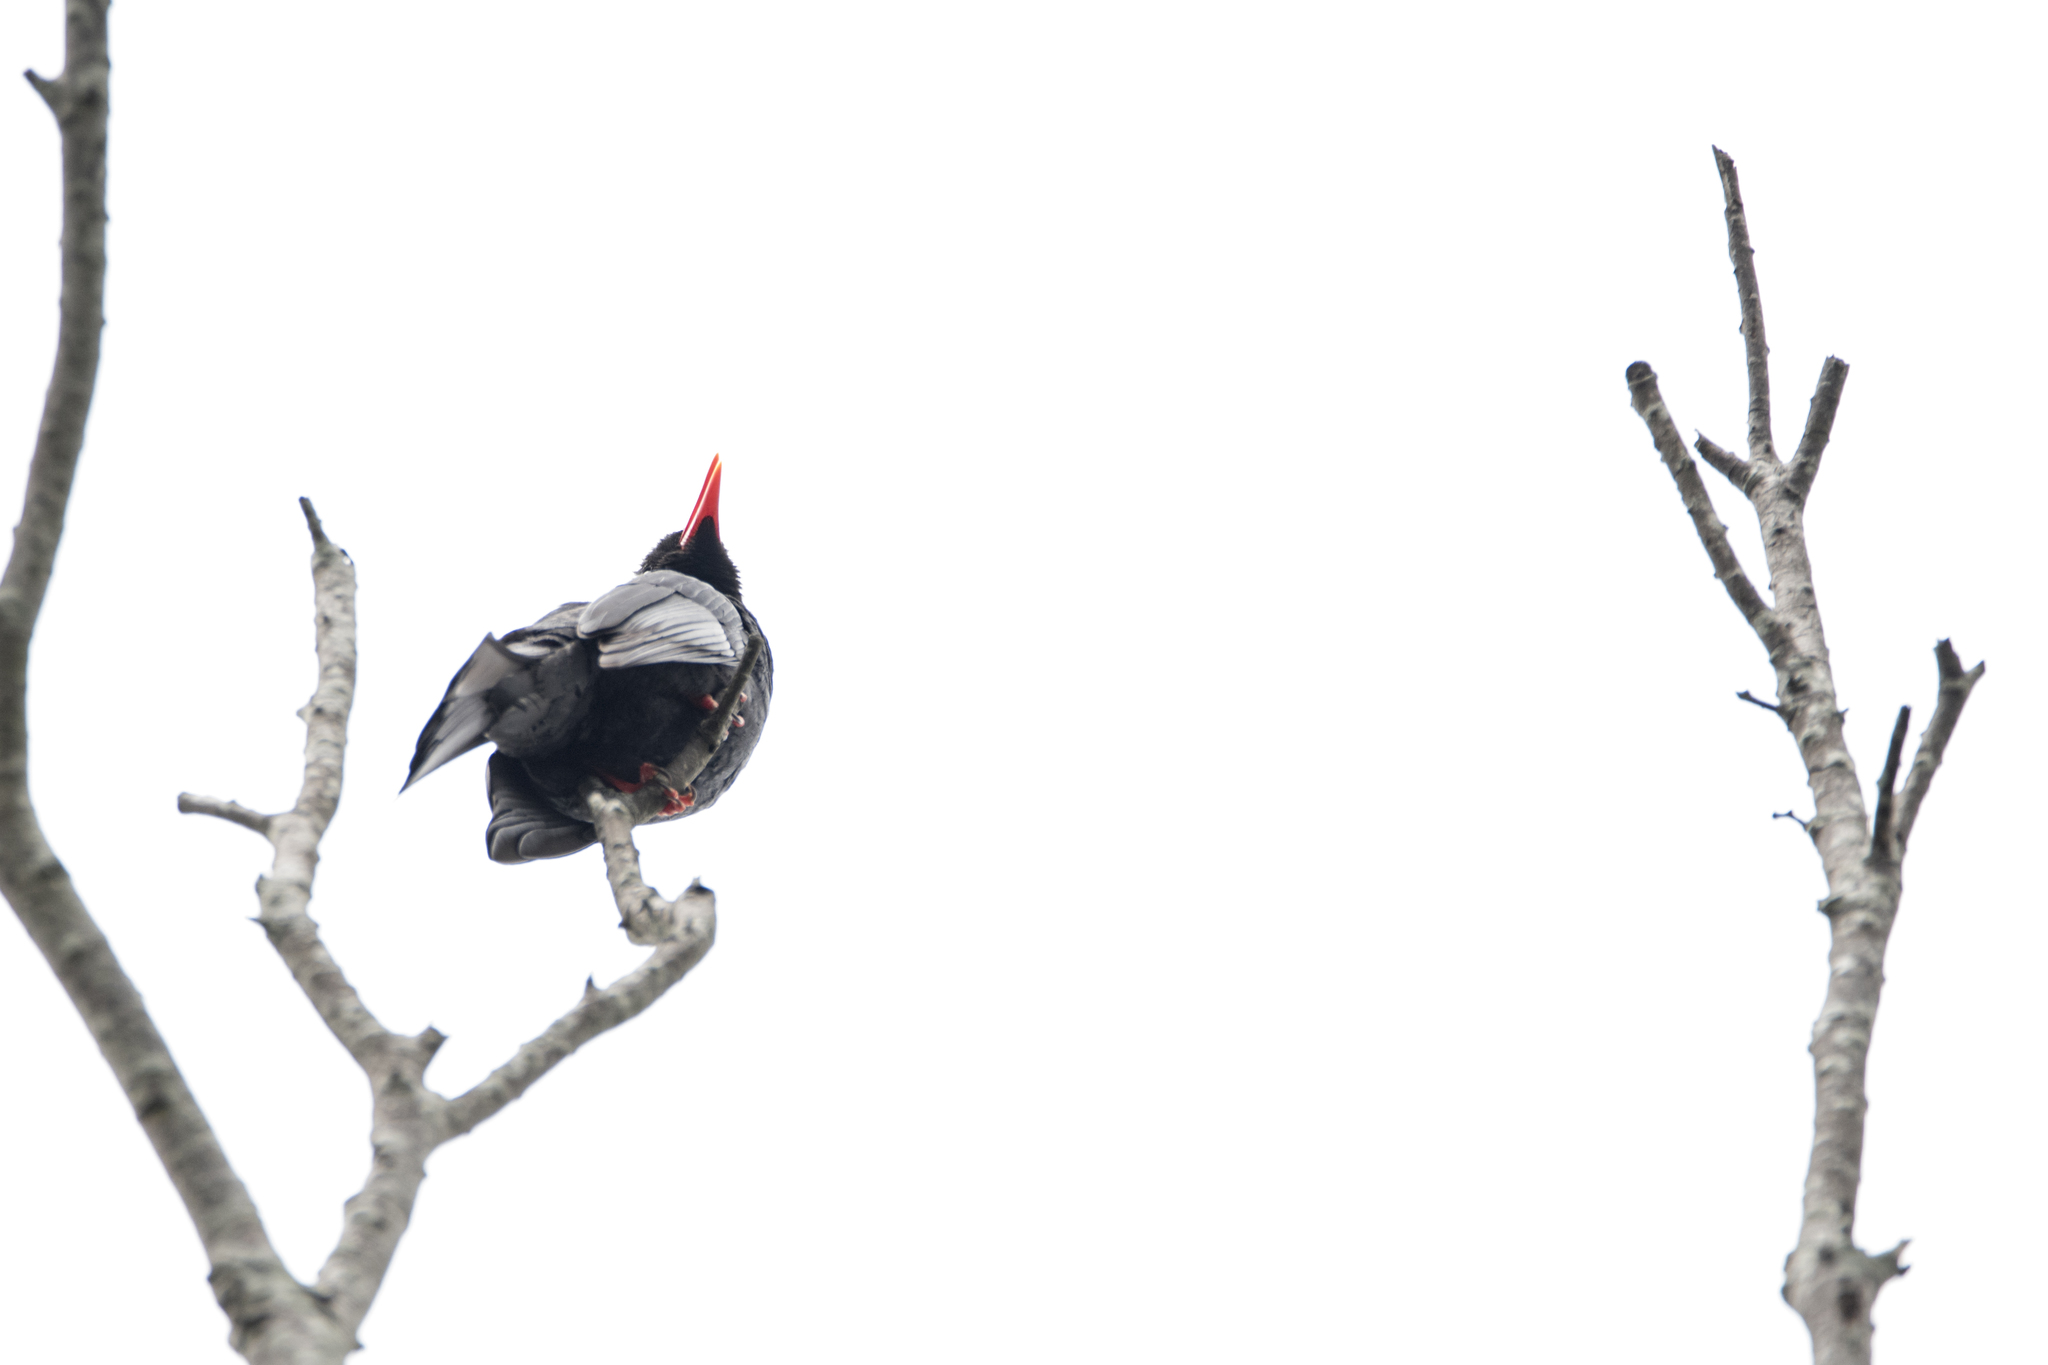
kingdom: Animalia
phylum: Chordata
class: Aves
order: Passeriformes
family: Pycnonotidae
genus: Hypsipetes
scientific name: Hypsipetes leucocephalus
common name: Black bulbul
